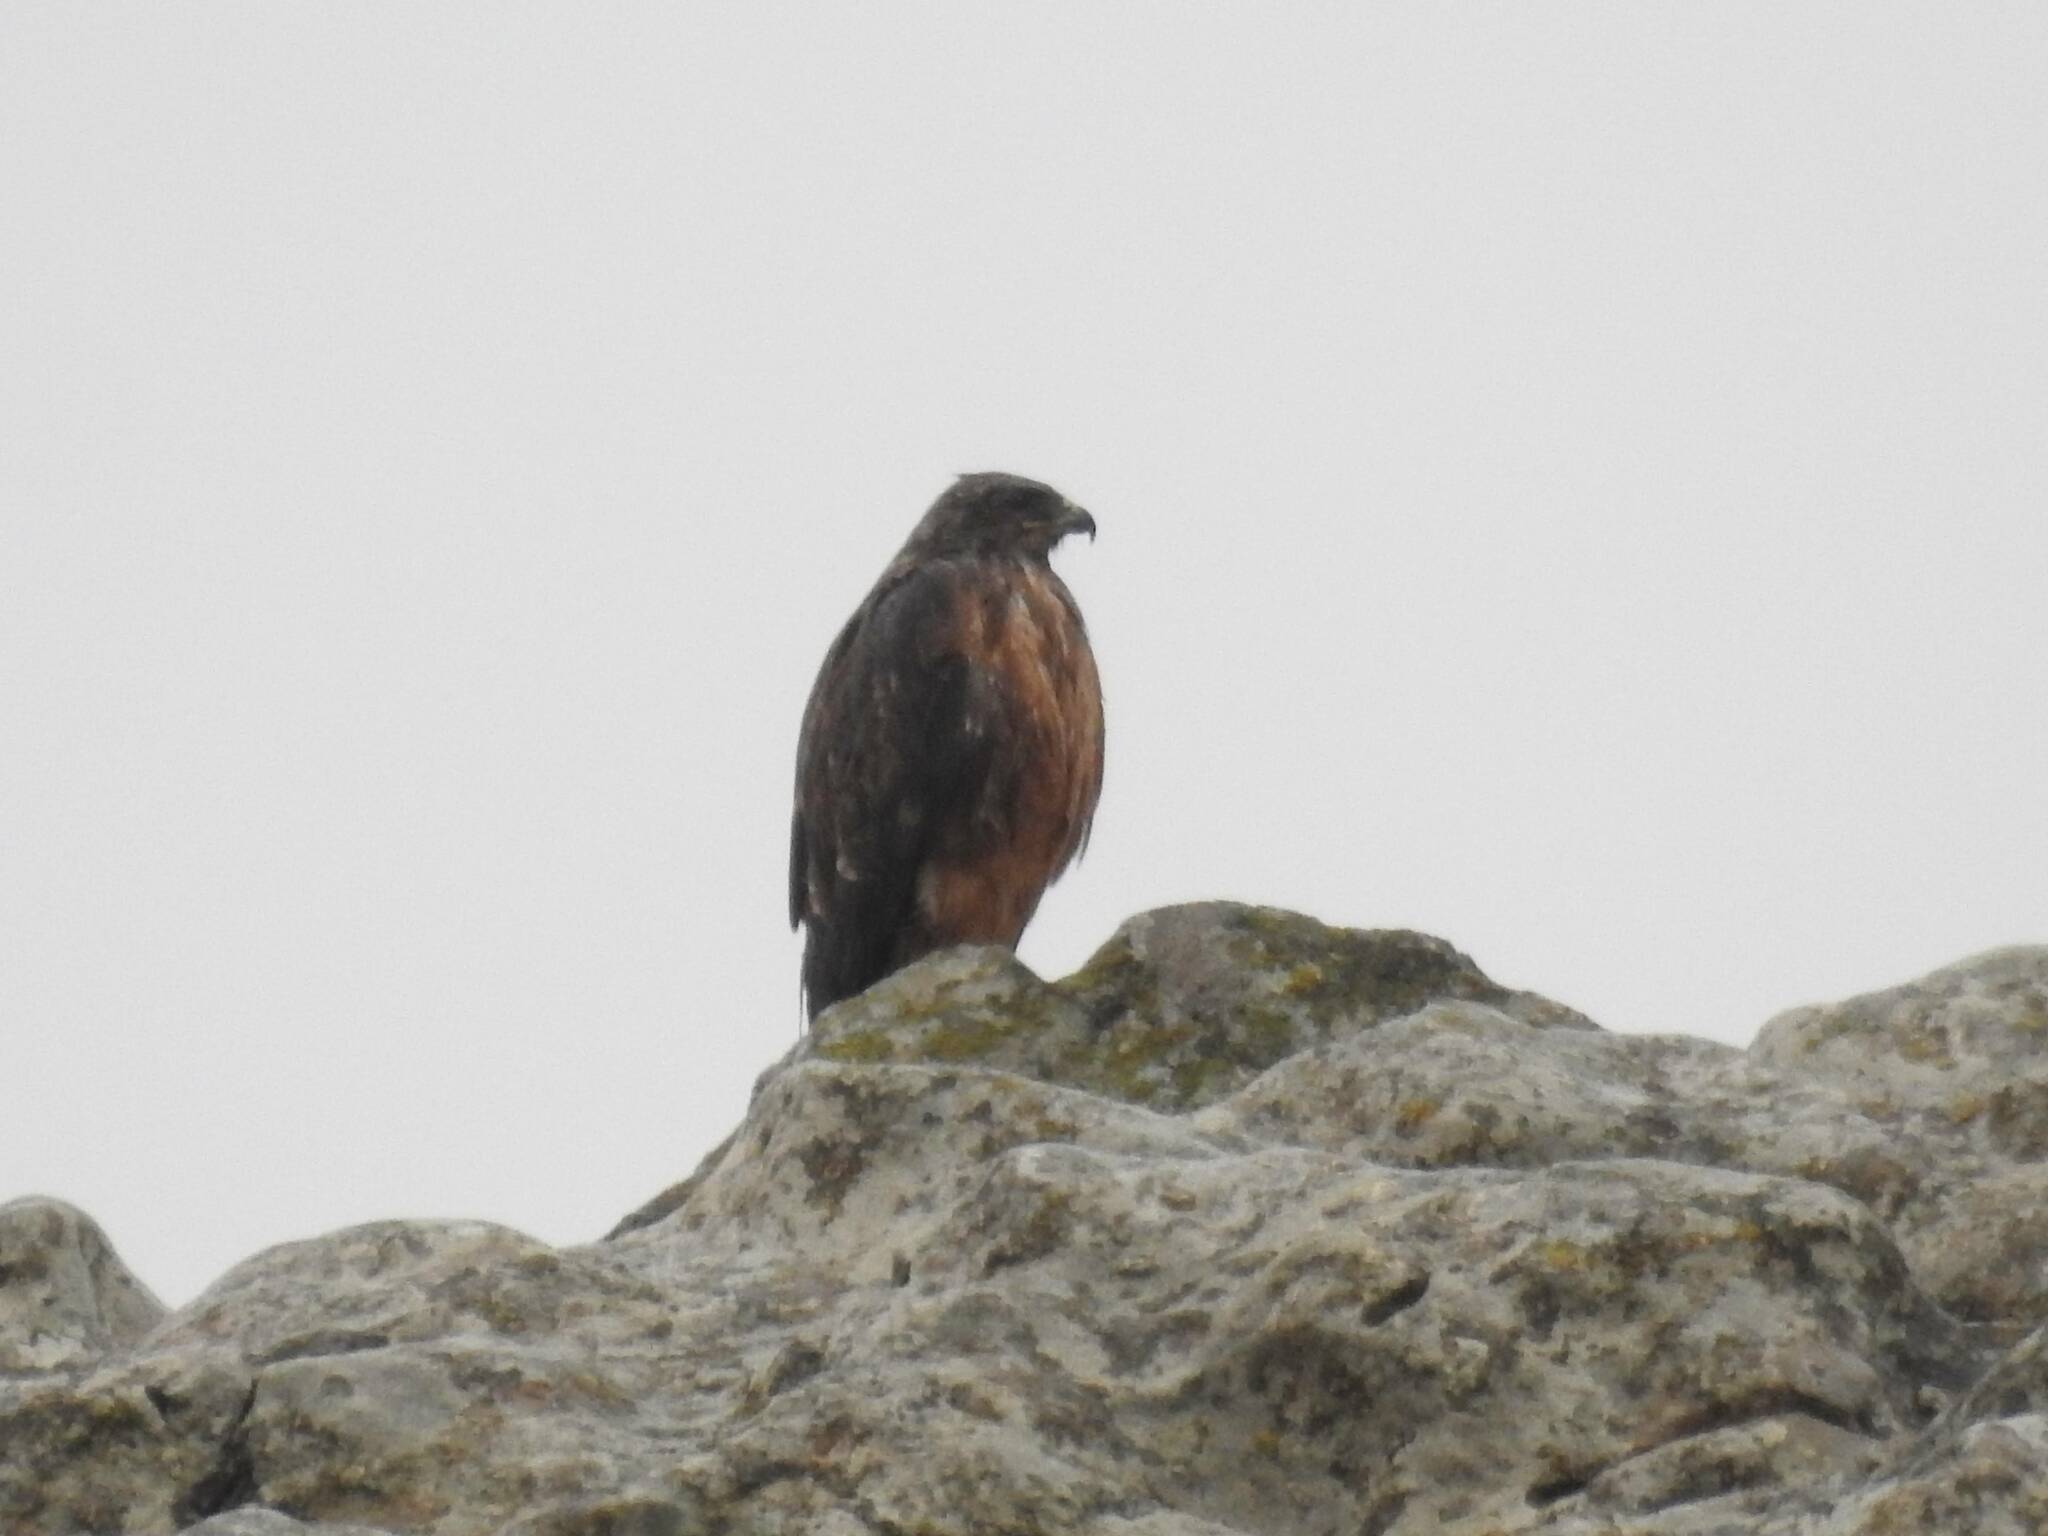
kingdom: Animalia
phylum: Chordata
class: Aves
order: Accipitriformes
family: Accipitridae
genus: Buteo
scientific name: Buteo rufinus
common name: Long-legged buzzard
